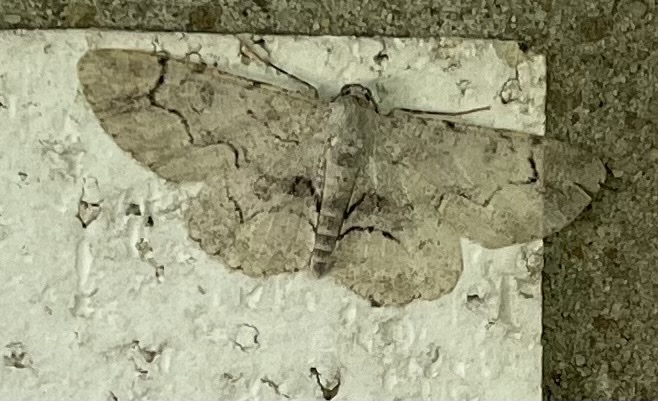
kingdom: Animalia
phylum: Arthropoda
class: Insecta
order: Lepidoptera
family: Geometridae
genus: Iridopsis
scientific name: Iridopsis larvaria
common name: Bent-line gray
